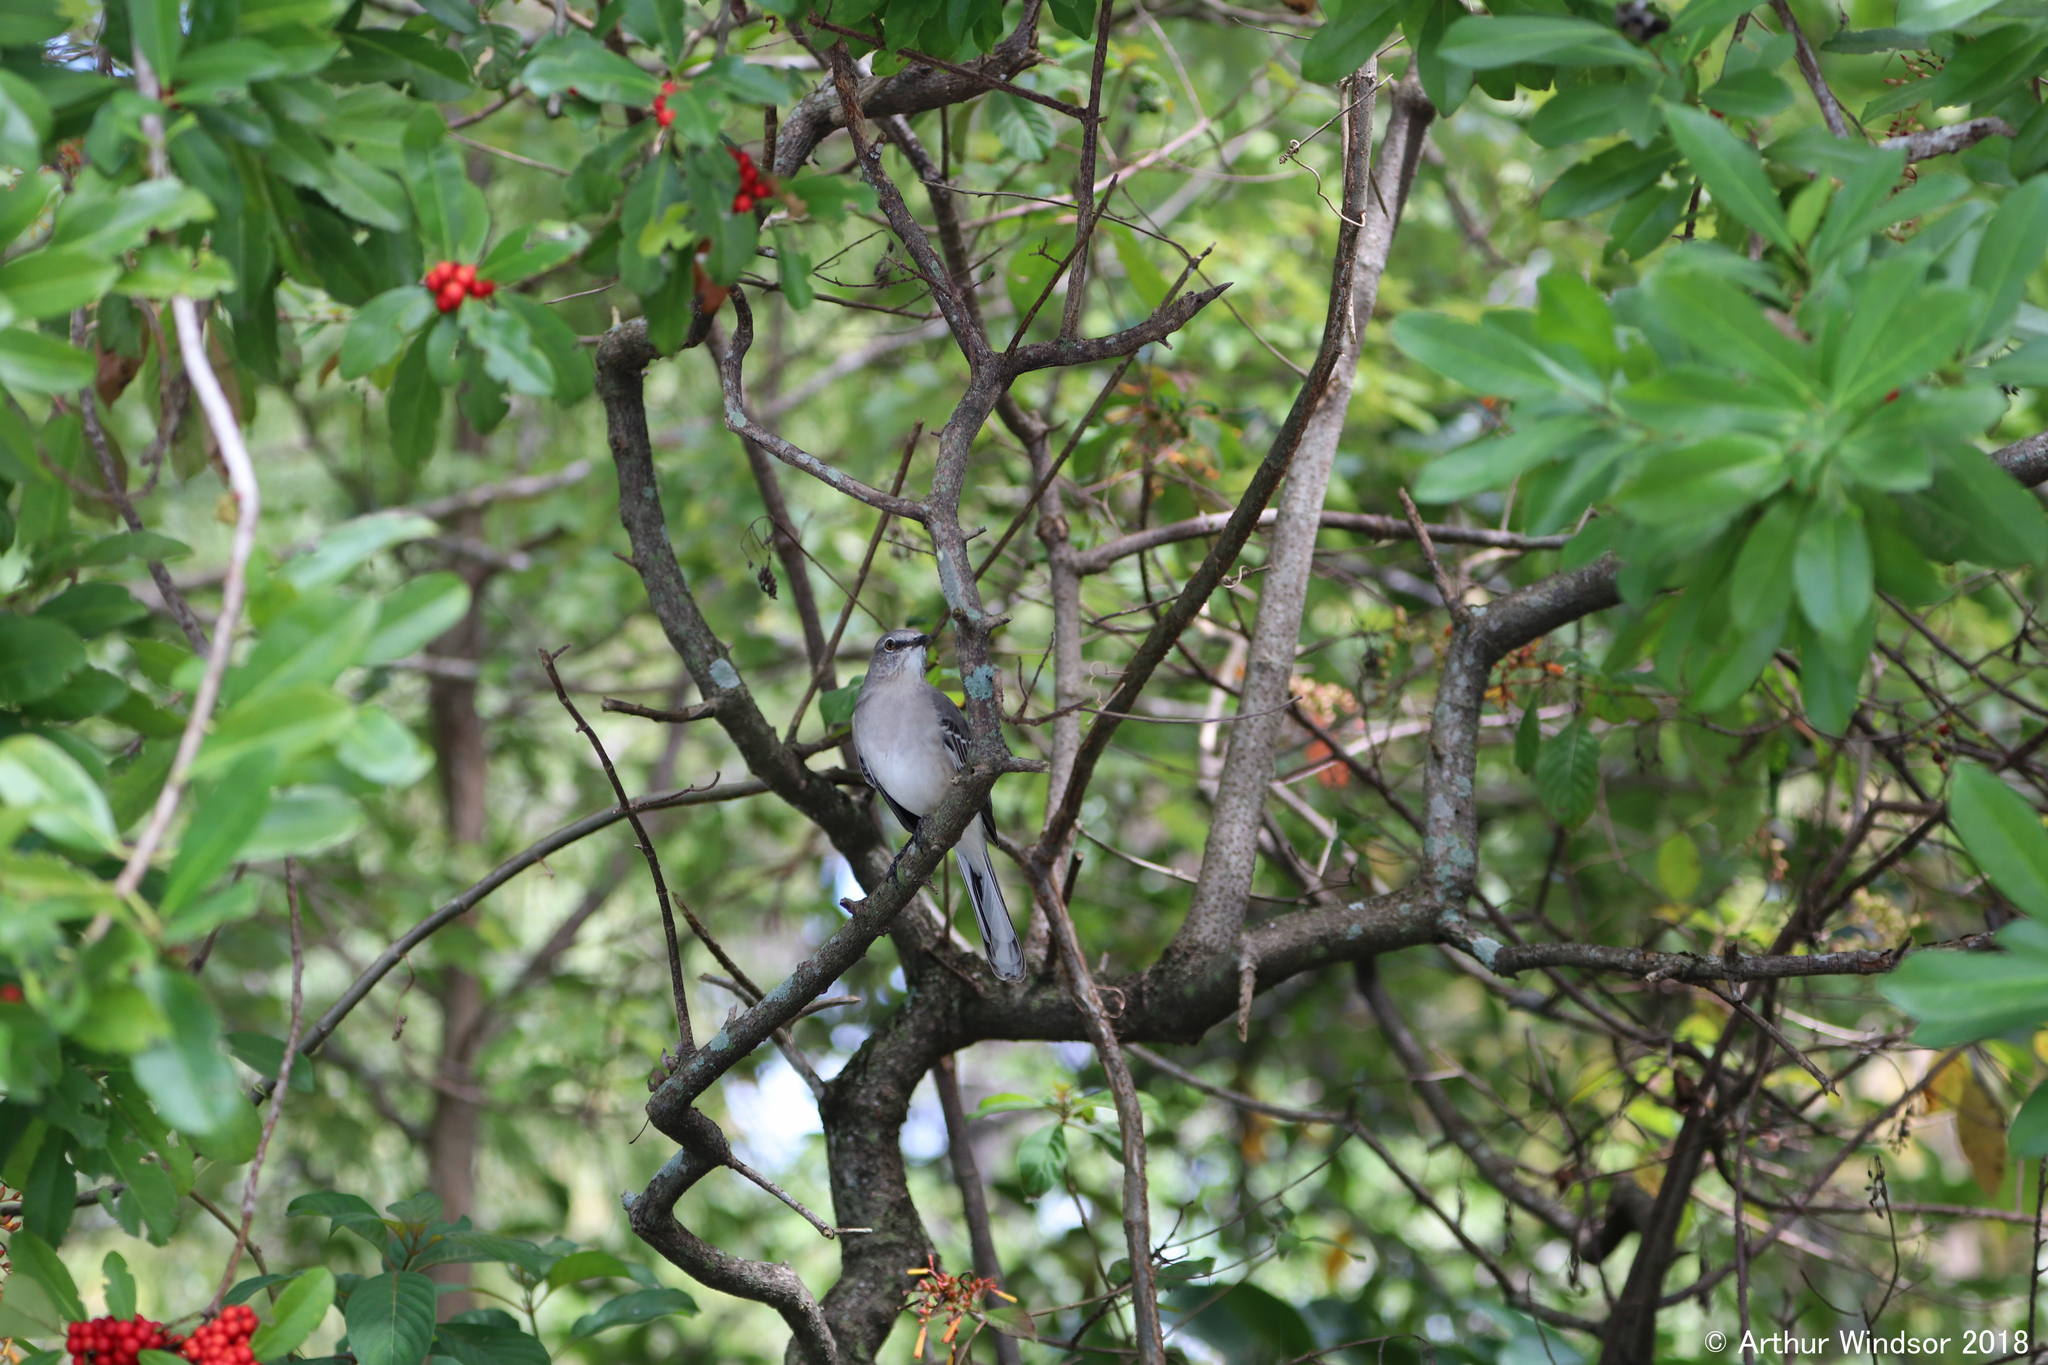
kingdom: Animalia
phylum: Chordata
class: Aves
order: Passeriformes
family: Mimidae
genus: Mimus
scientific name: Mimus polyglottos
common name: Northern mockingbird
